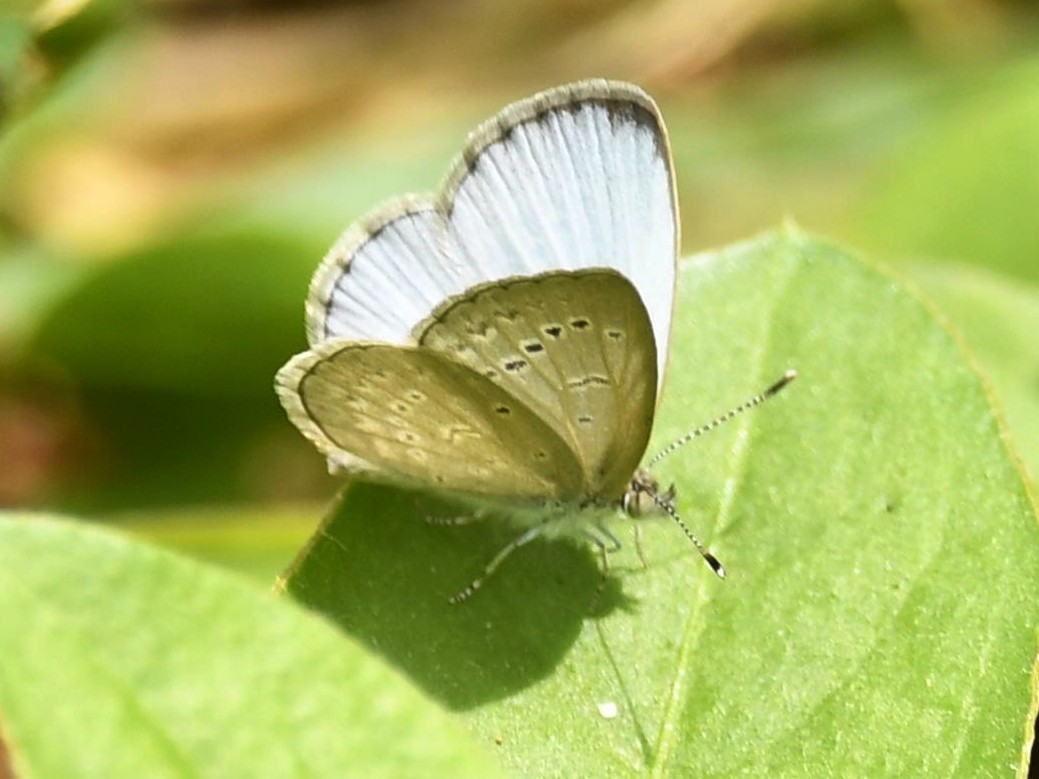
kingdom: Animalia
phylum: Arthropoda
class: Insecta
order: Lepidoptera
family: Lycaenidae
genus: Pseudozizeeria
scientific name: Pseudozizeeria maha
